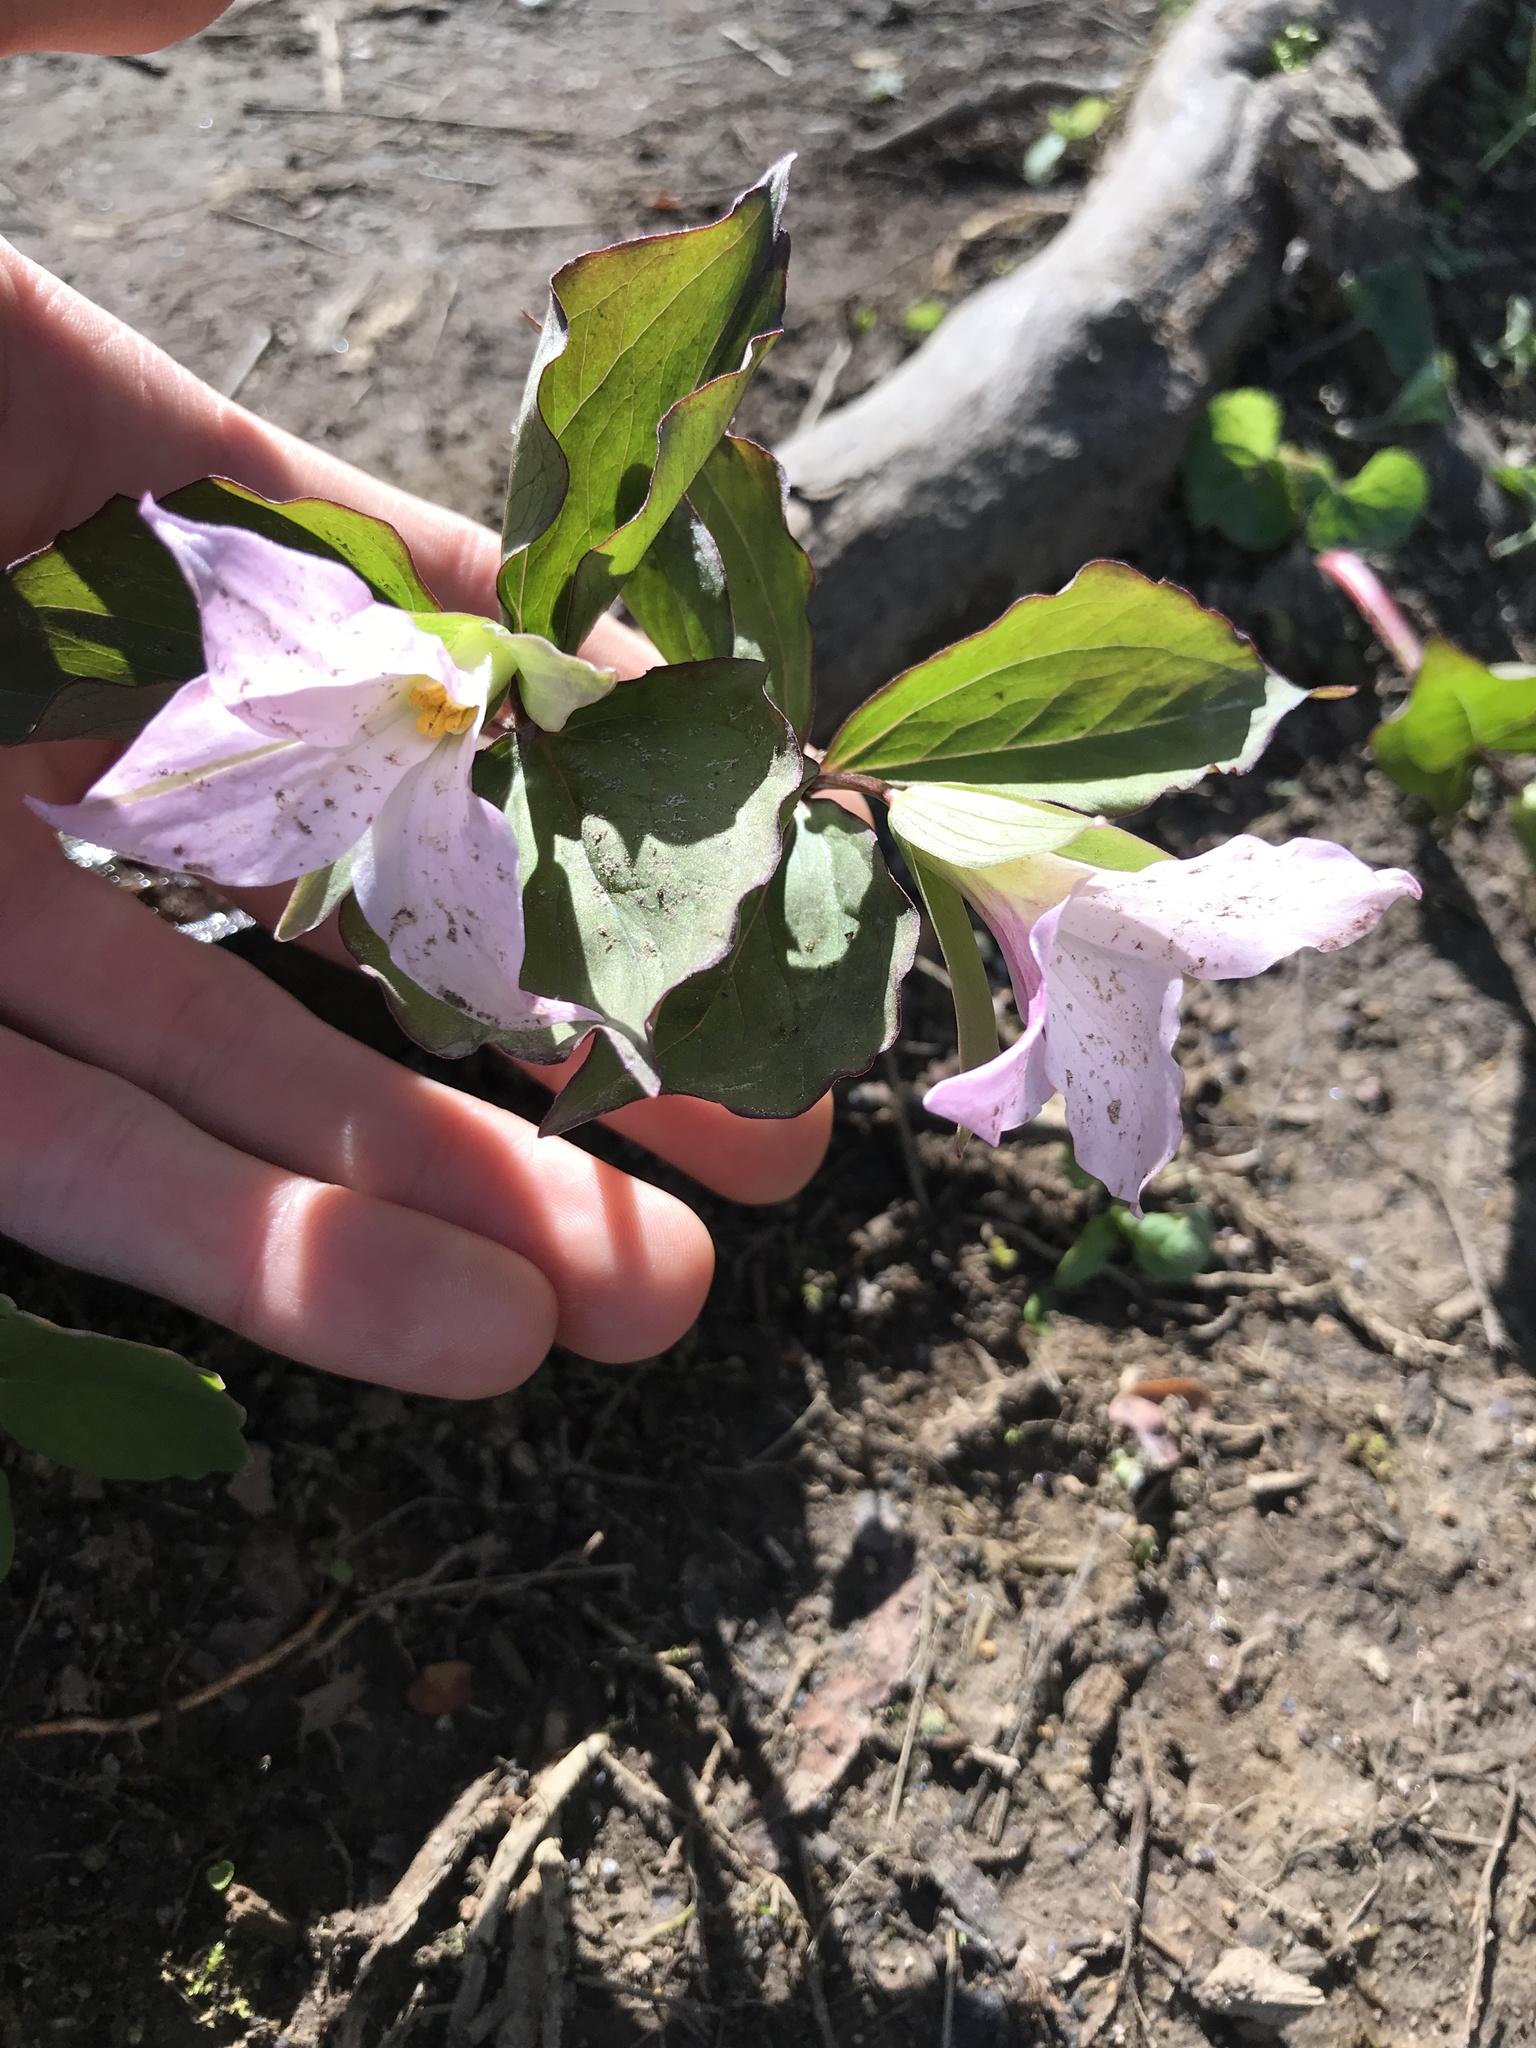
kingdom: Plantae
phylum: Tracheophyta
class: Liliopsida
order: Liliales
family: Melanthiaceae
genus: Trillium
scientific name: Trillium grandiflorum
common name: Great white trillium
